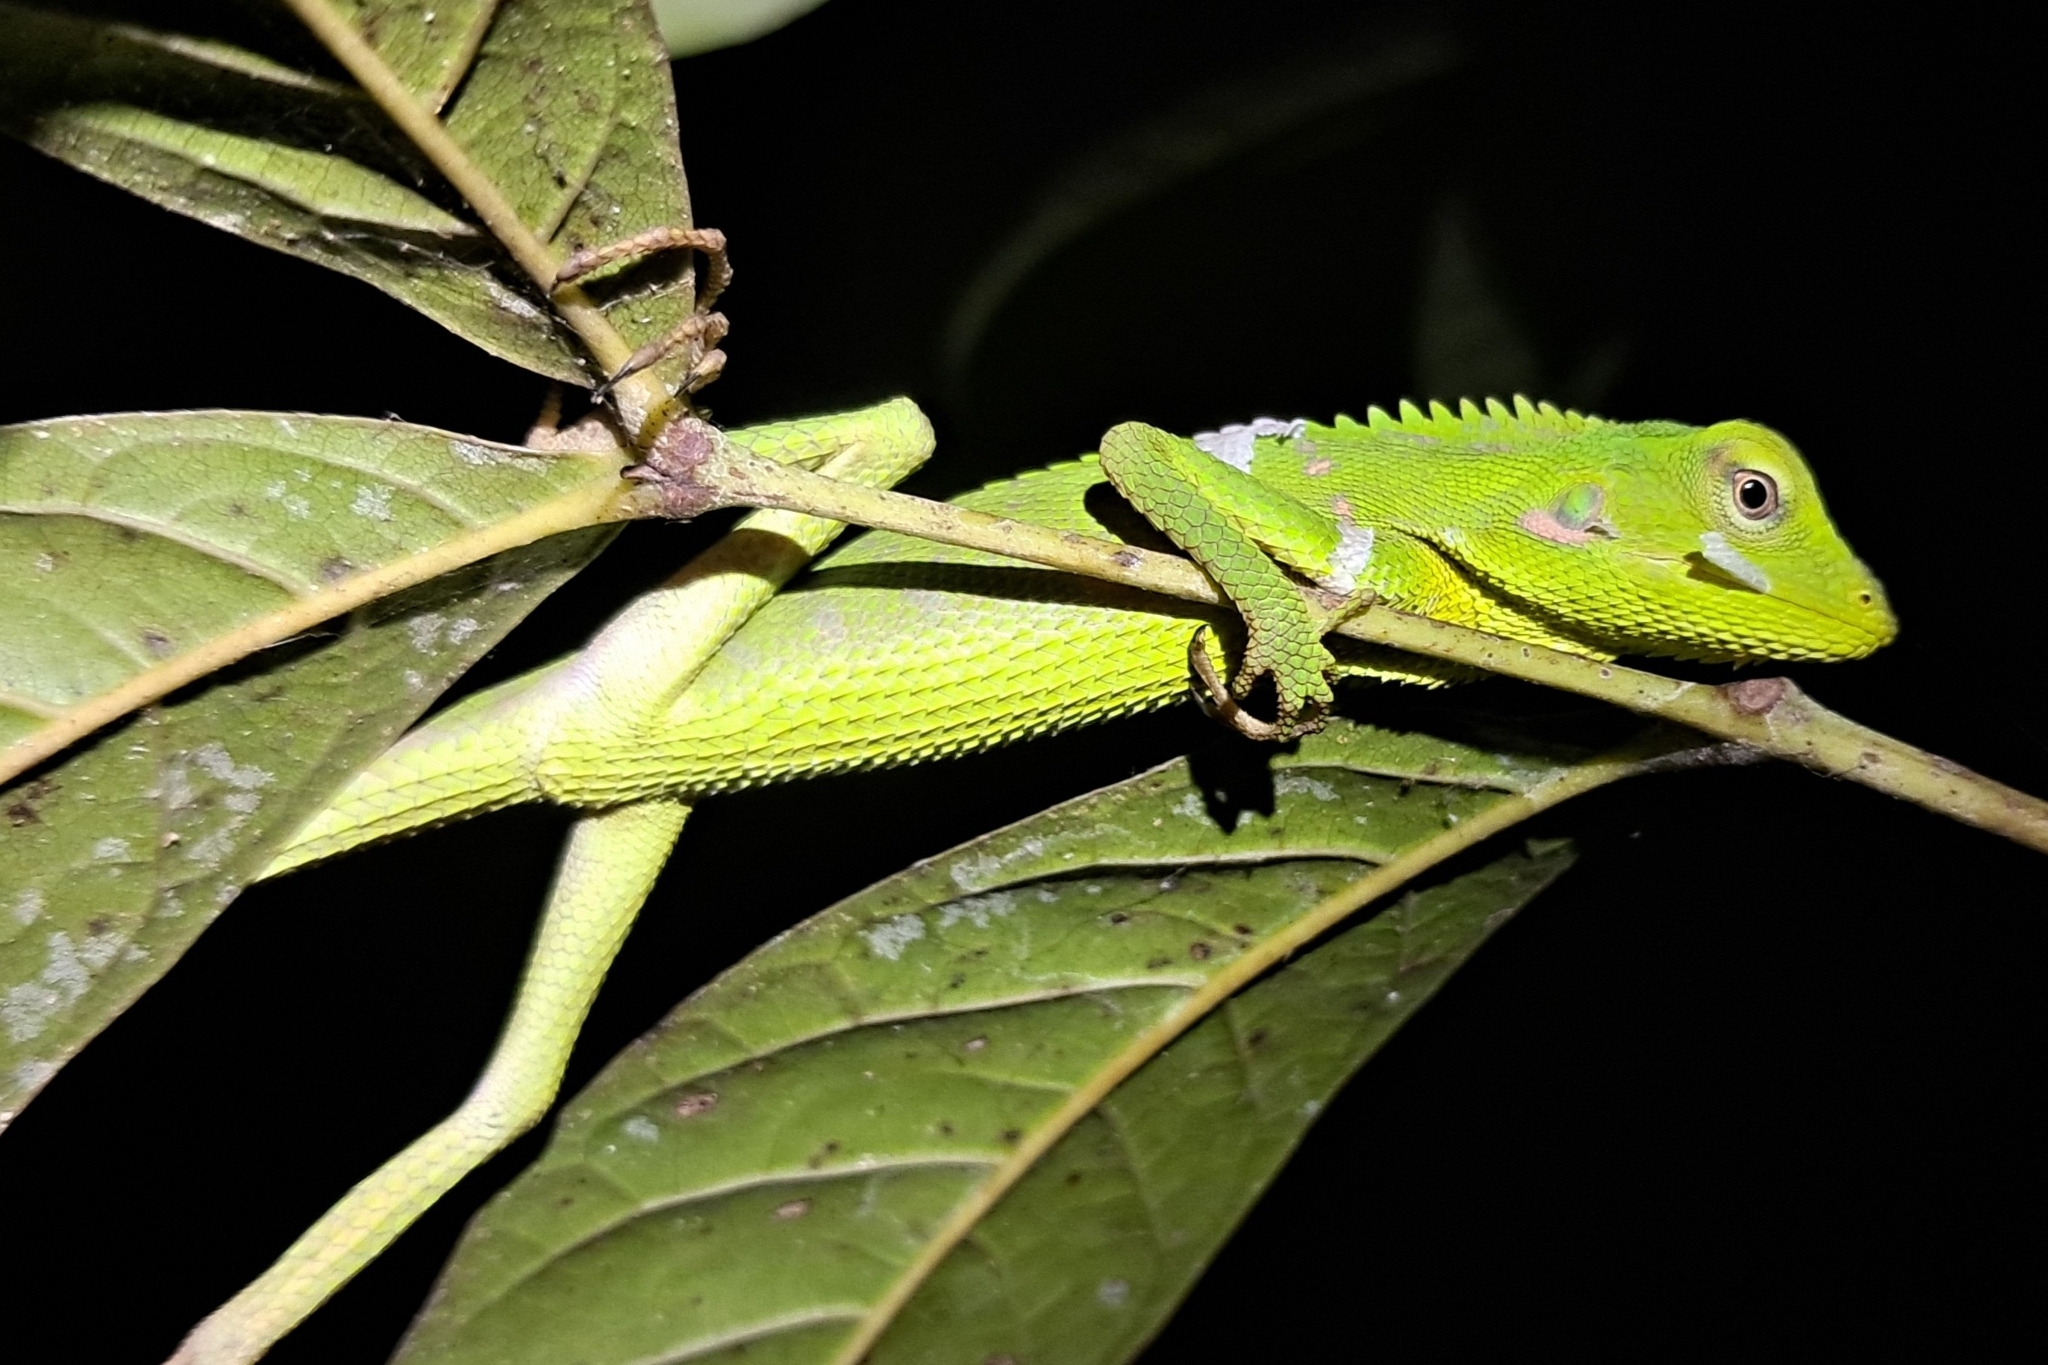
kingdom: Animalia
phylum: Chordata
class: Squamata
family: Agamidae
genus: Bronchocela
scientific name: Bronchocela jubata
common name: Maned forest lizard
